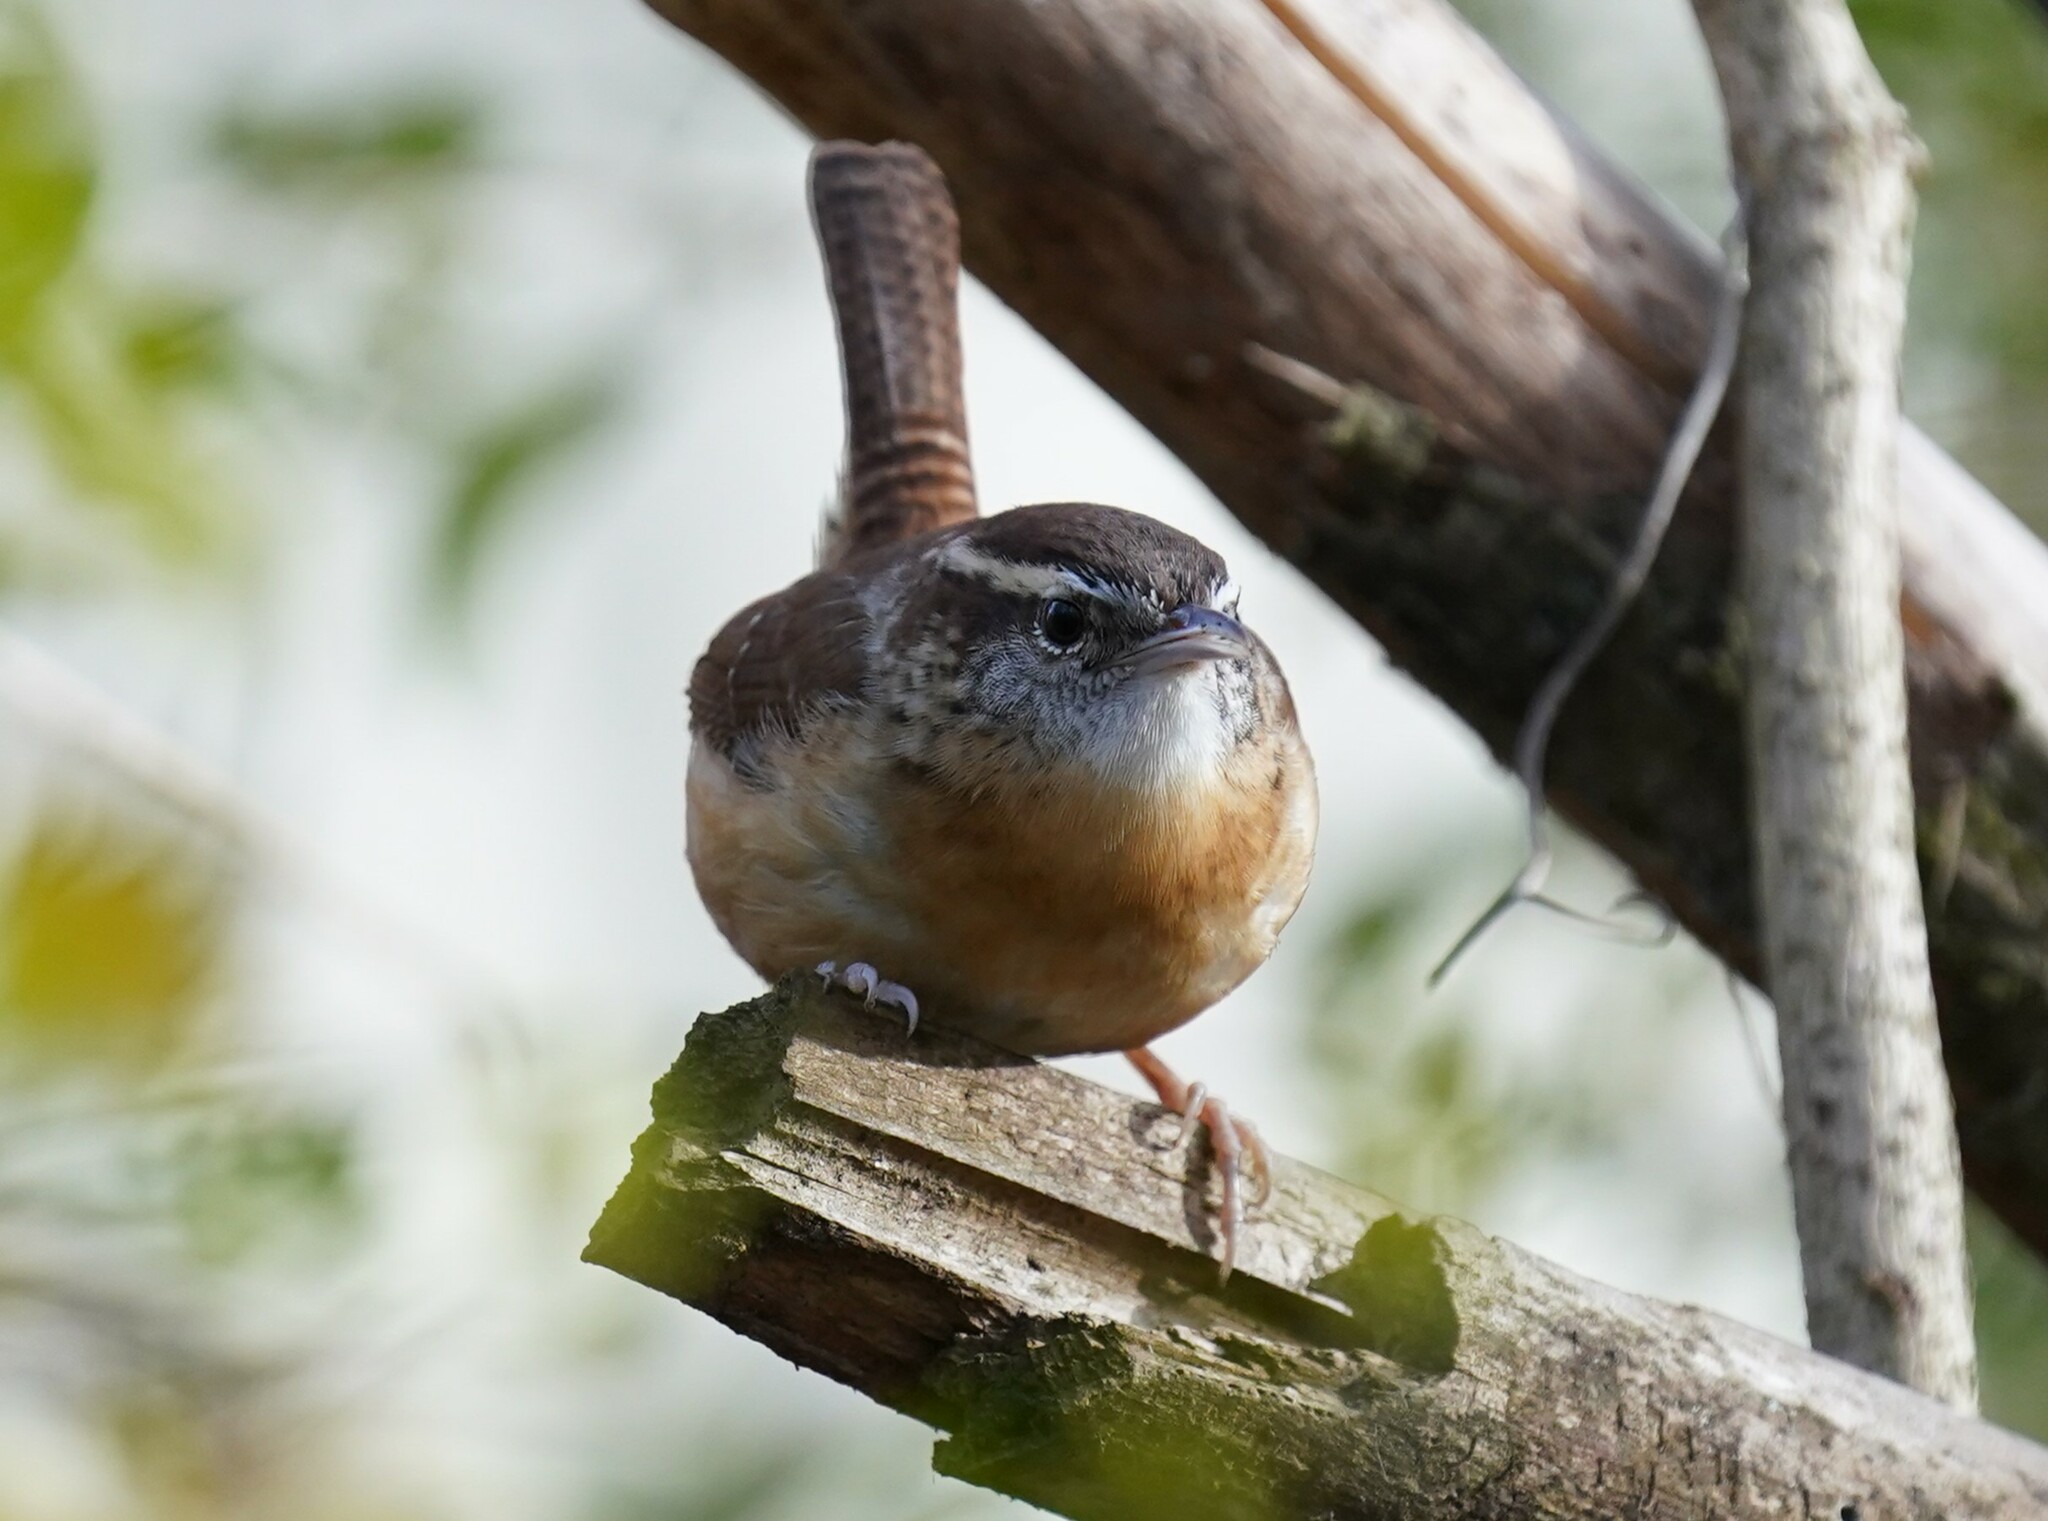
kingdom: Animalia
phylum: Chordata
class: Aves
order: Passeriformes
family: Troglodytidae
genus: Thryothorus
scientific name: Thryothorus ludovicianus
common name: Carolina wren
